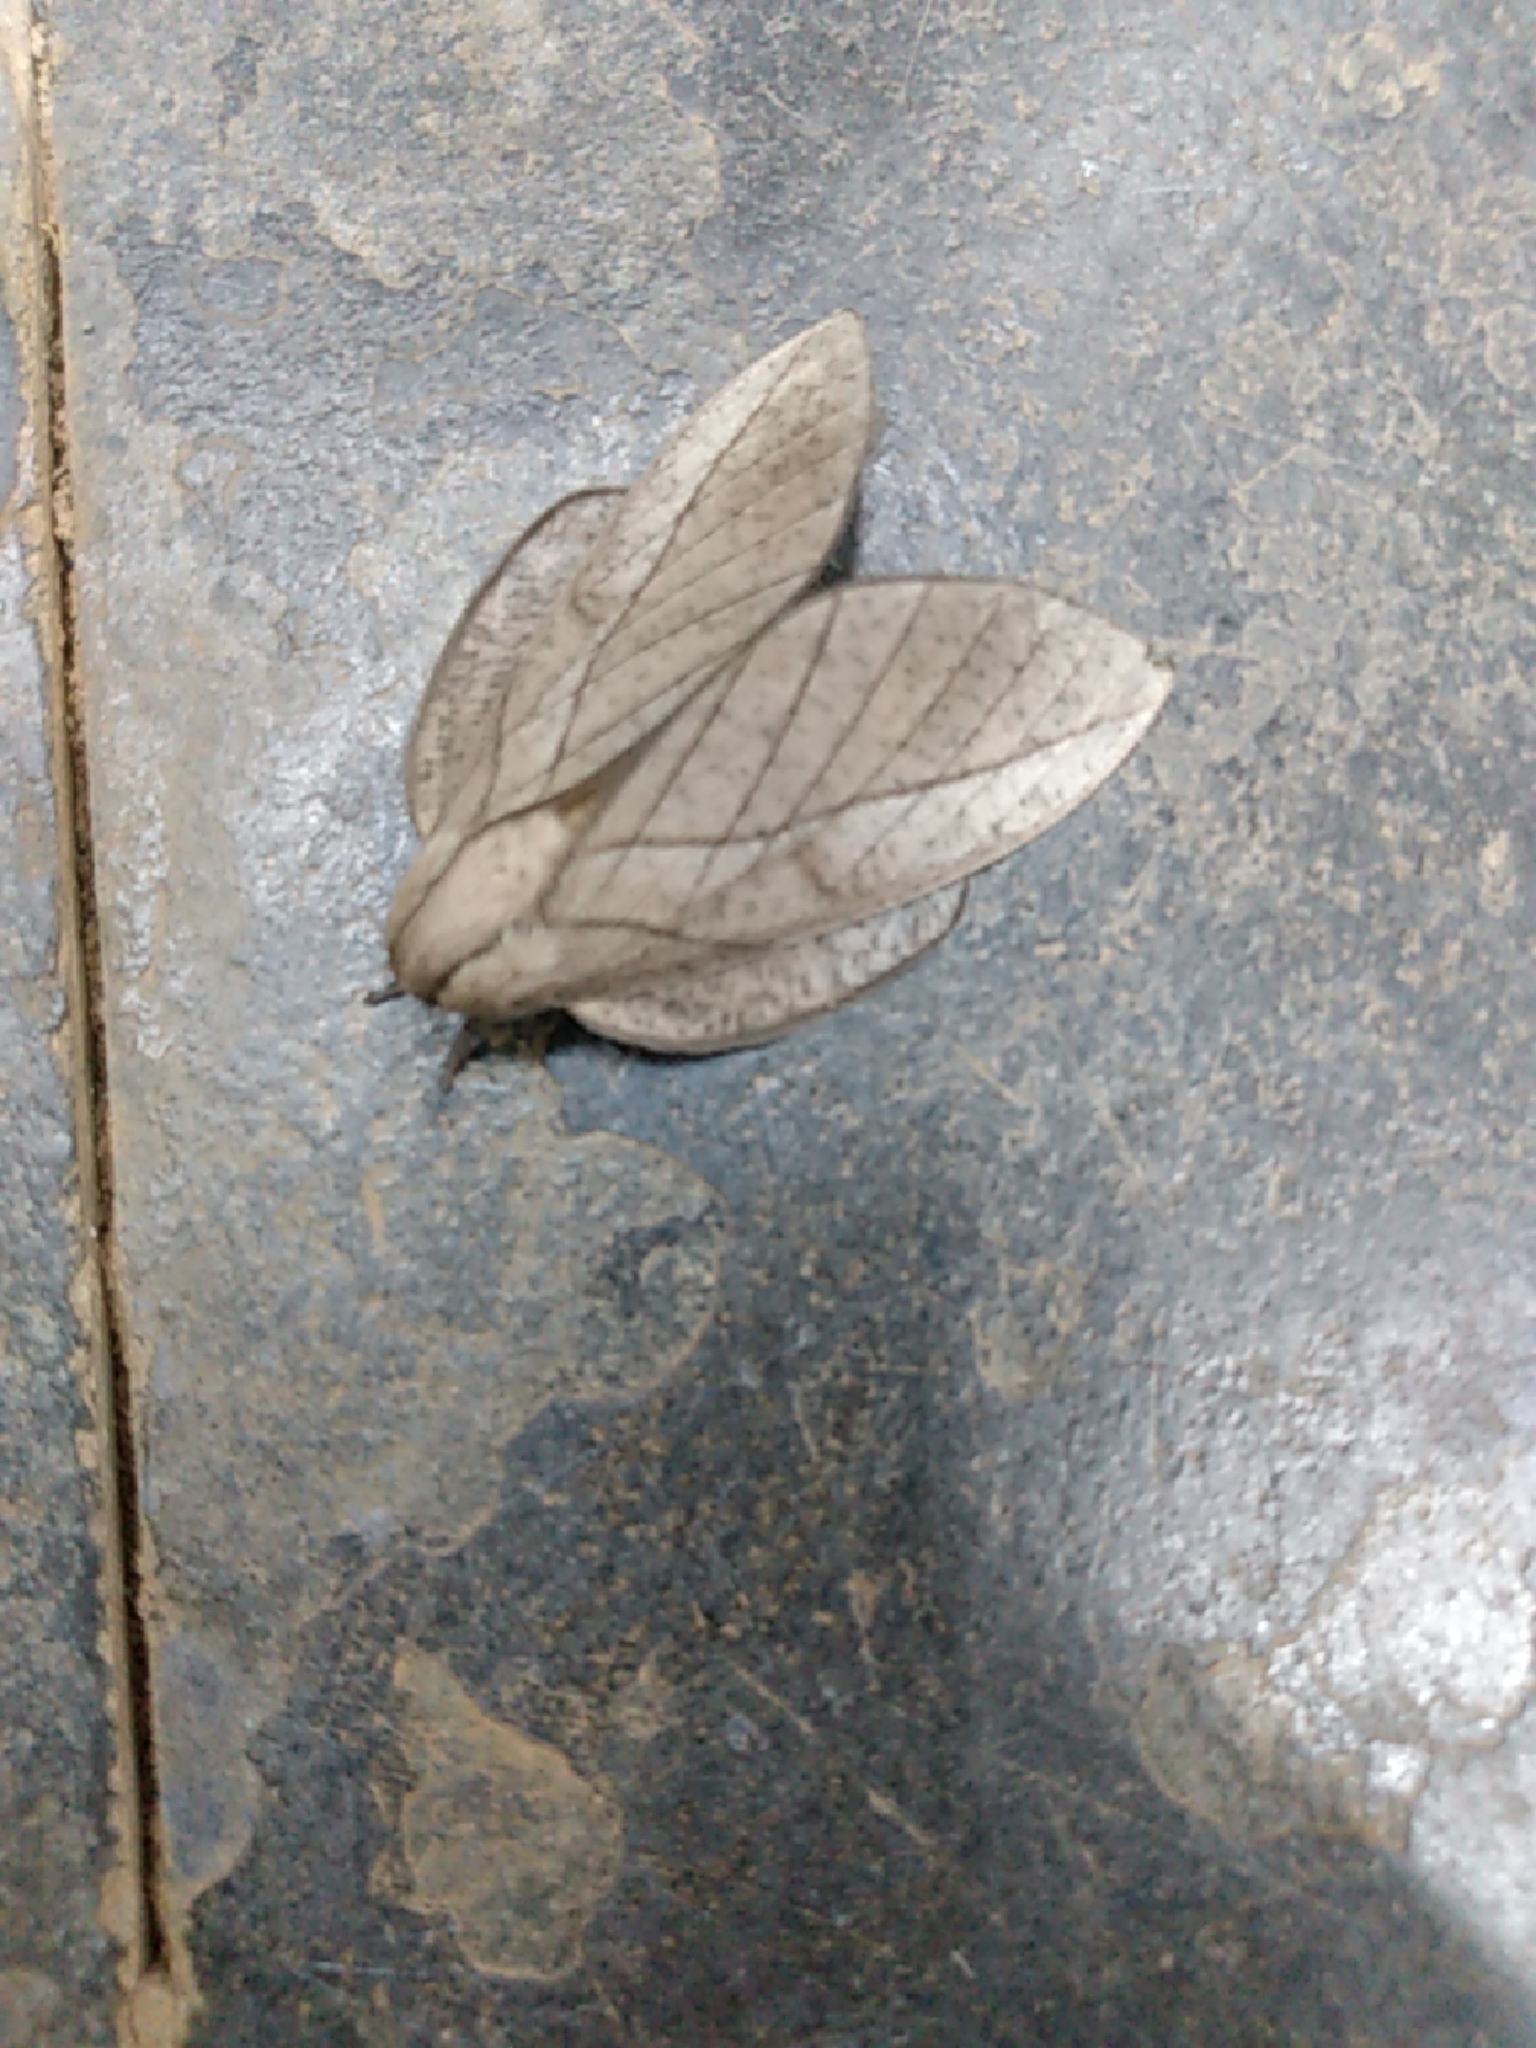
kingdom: Animalia
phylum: Arthropoda
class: Insecta
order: Lepidoptera
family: Saturniidae
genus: Citioica
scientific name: Citioica anthonilis
